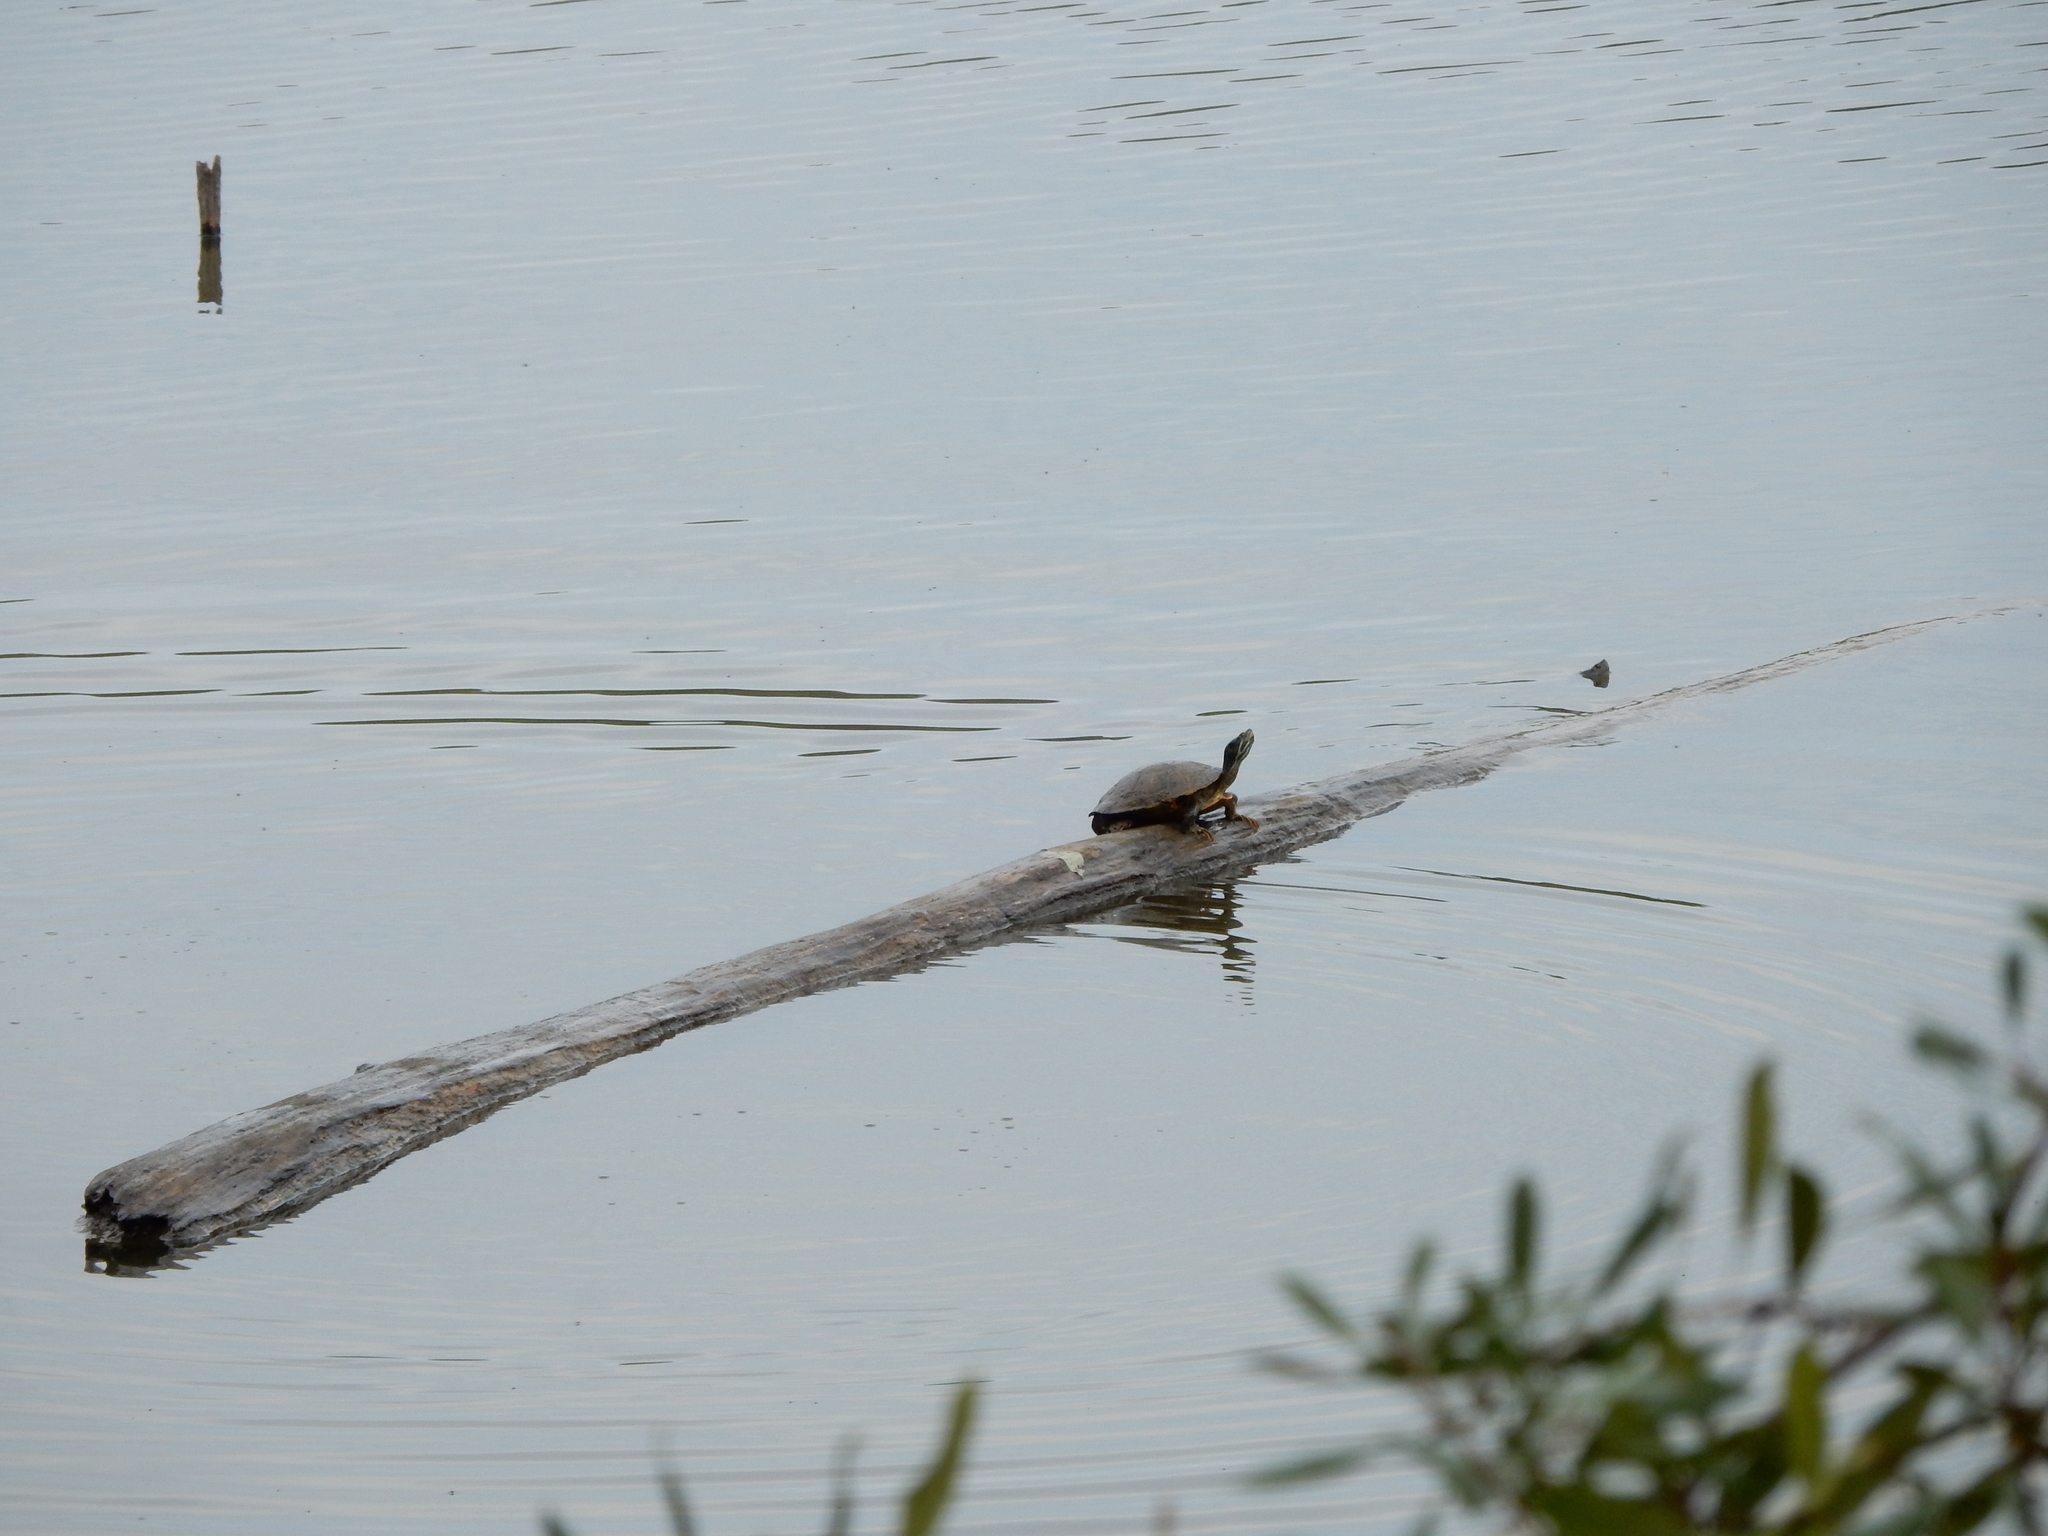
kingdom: Animalia
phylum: Chordata
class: Testudines
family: Emydidae
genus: Trachemys
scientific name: Trachemys scripta
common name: Slider
